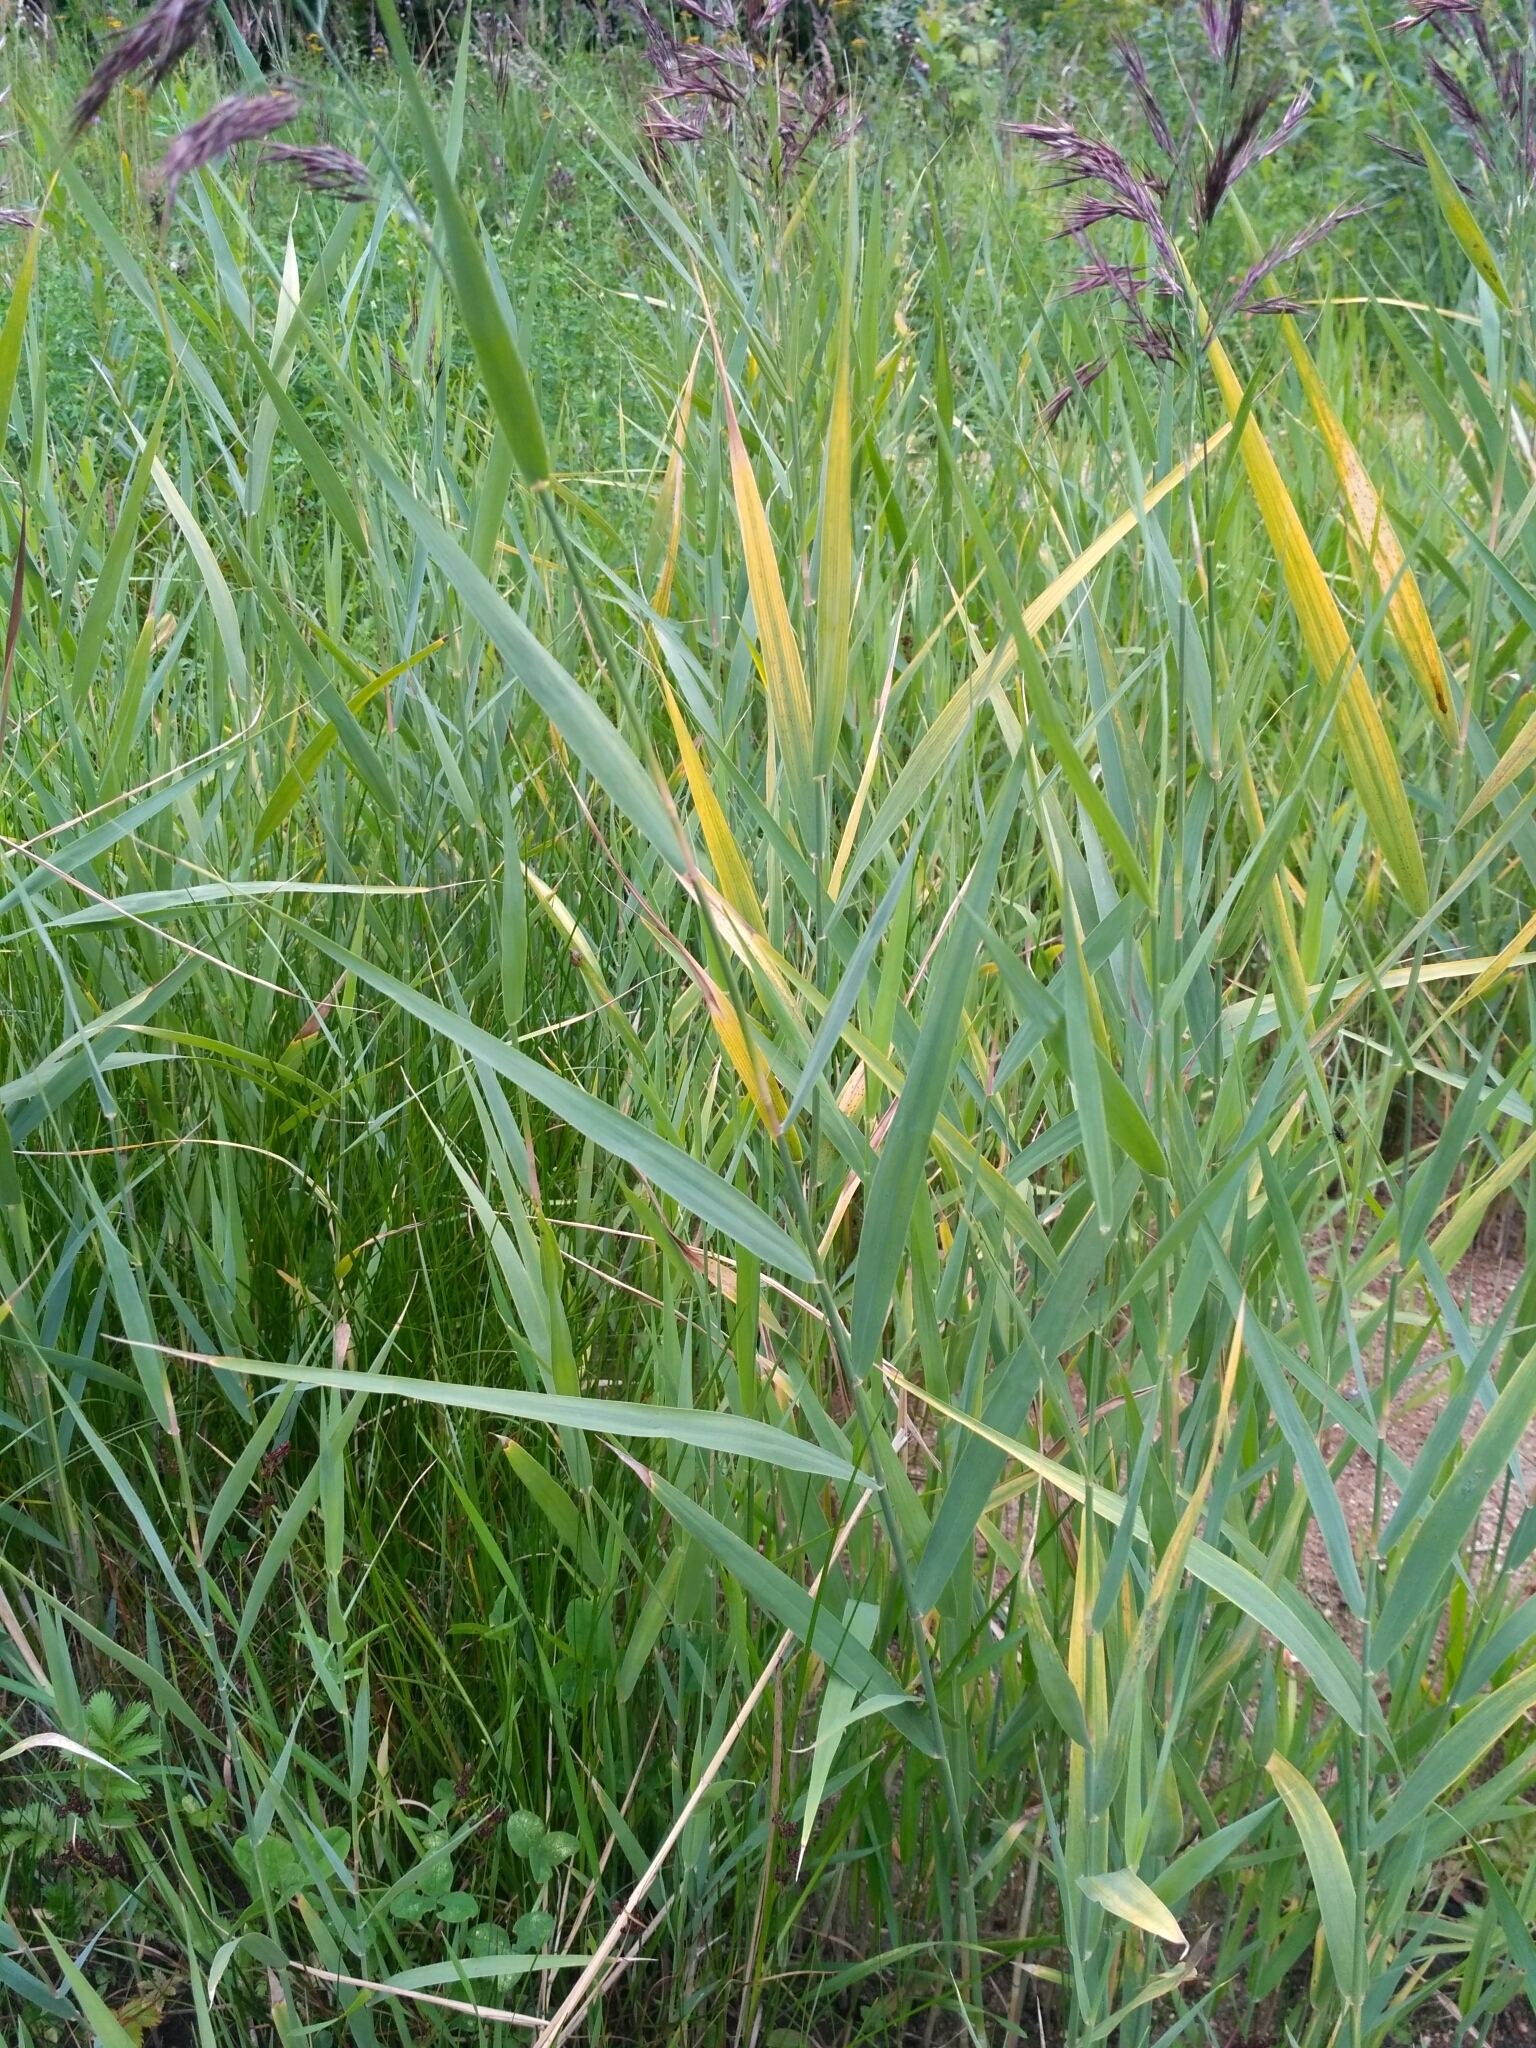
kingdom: Plantae
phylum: Tracheophyta
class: Liliopsida
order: Poales
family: Poaceae
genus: Phragmites
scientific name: Phragmites australis
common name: Common reed
